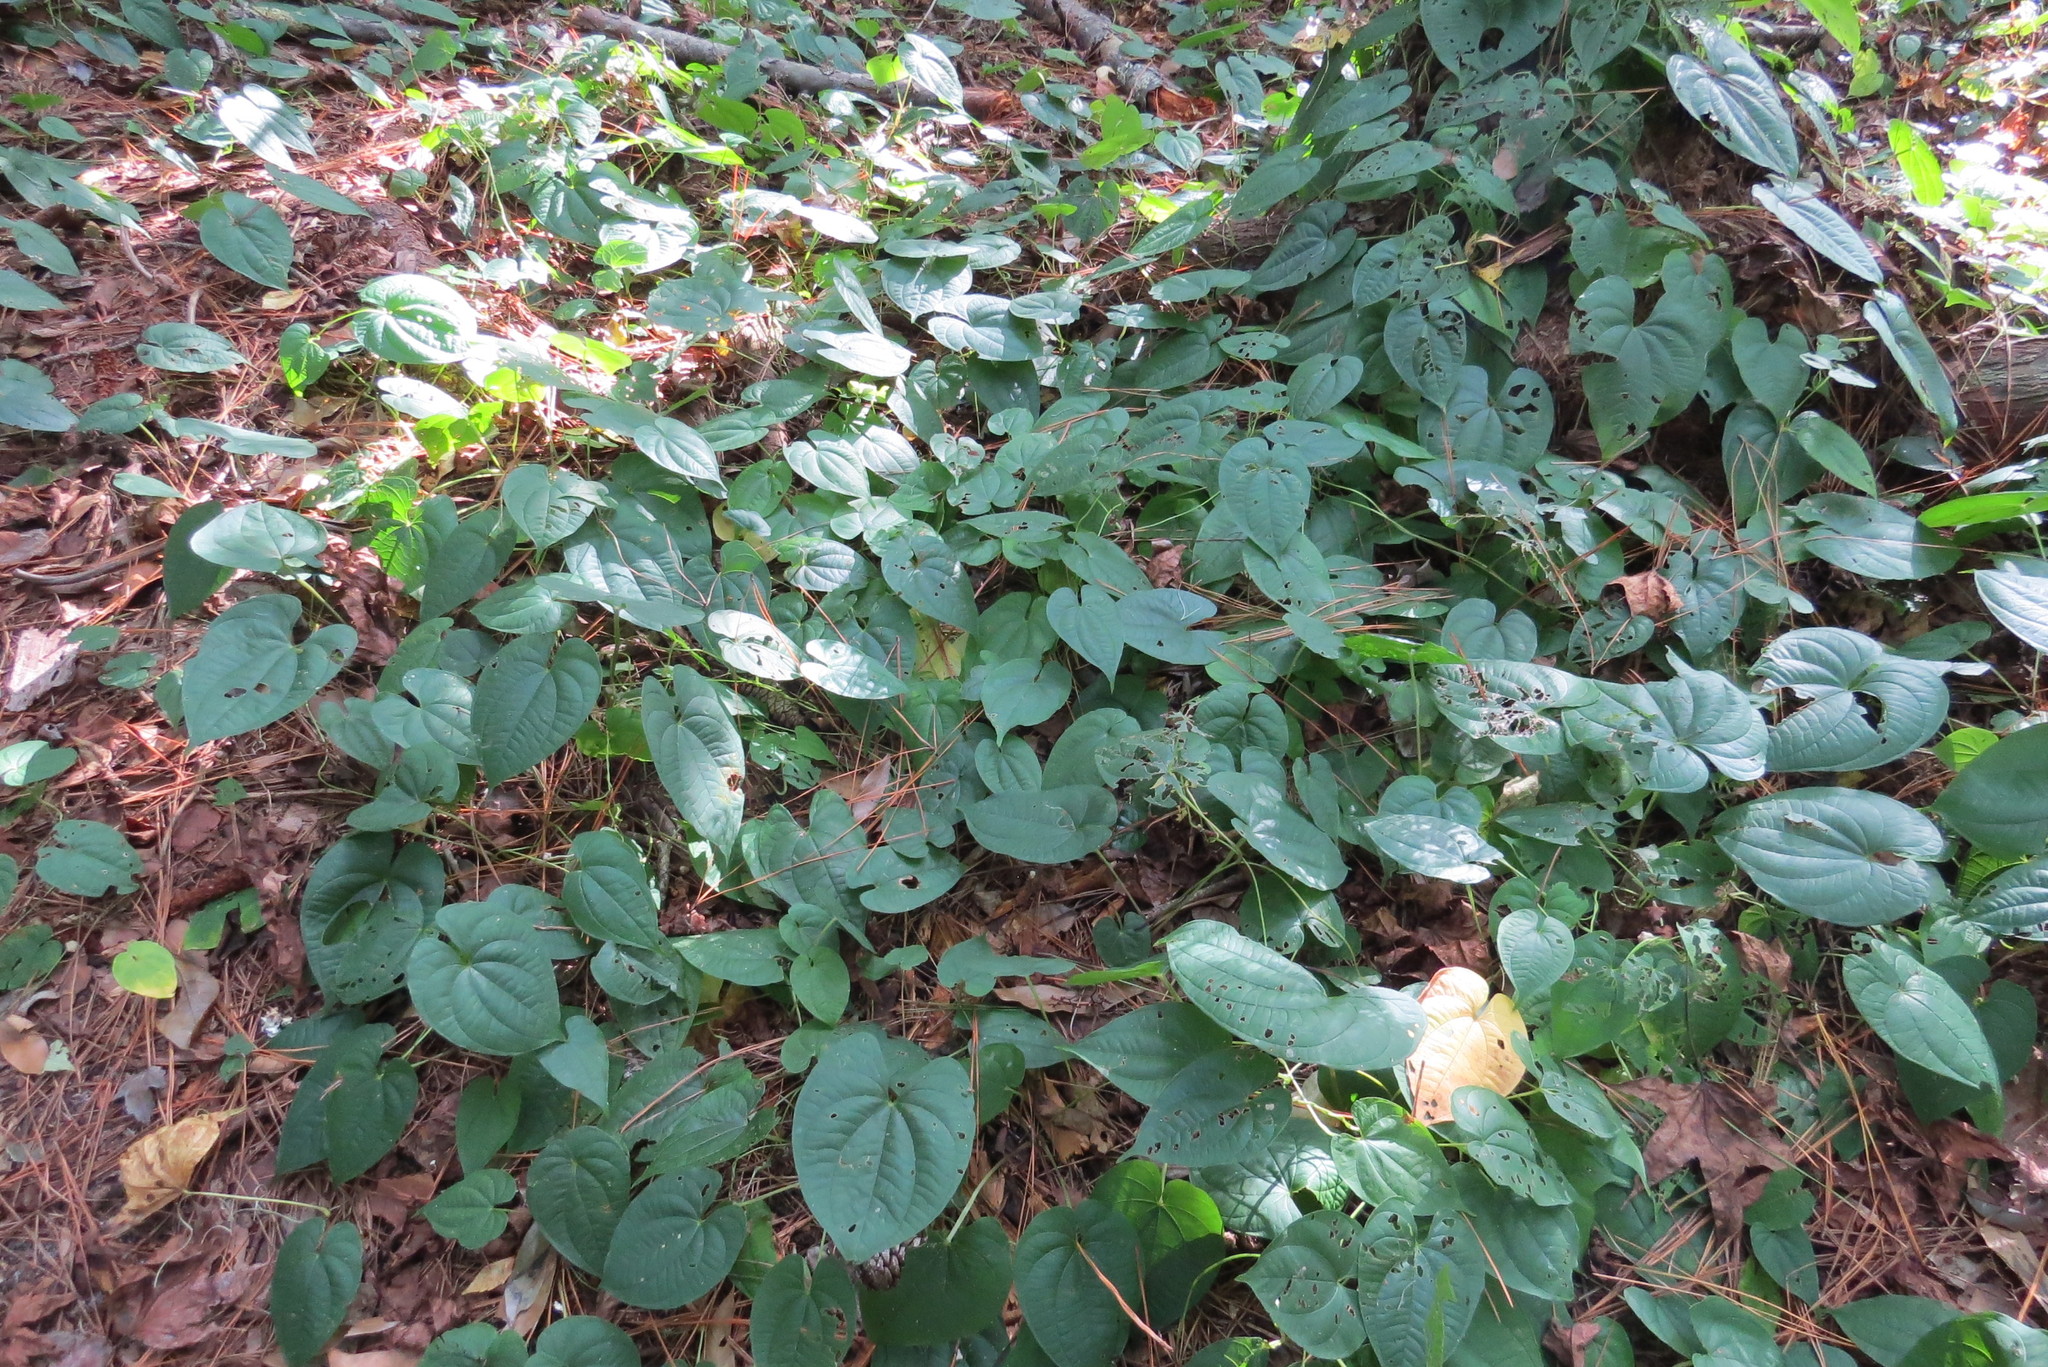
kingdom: Plantae
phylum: Tracheophyta
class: Liliopsida
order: Dioscoreales
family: Dioscoreaceae
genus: Dioscorea
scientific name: Dioscorea bulbifera
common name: Air yam
